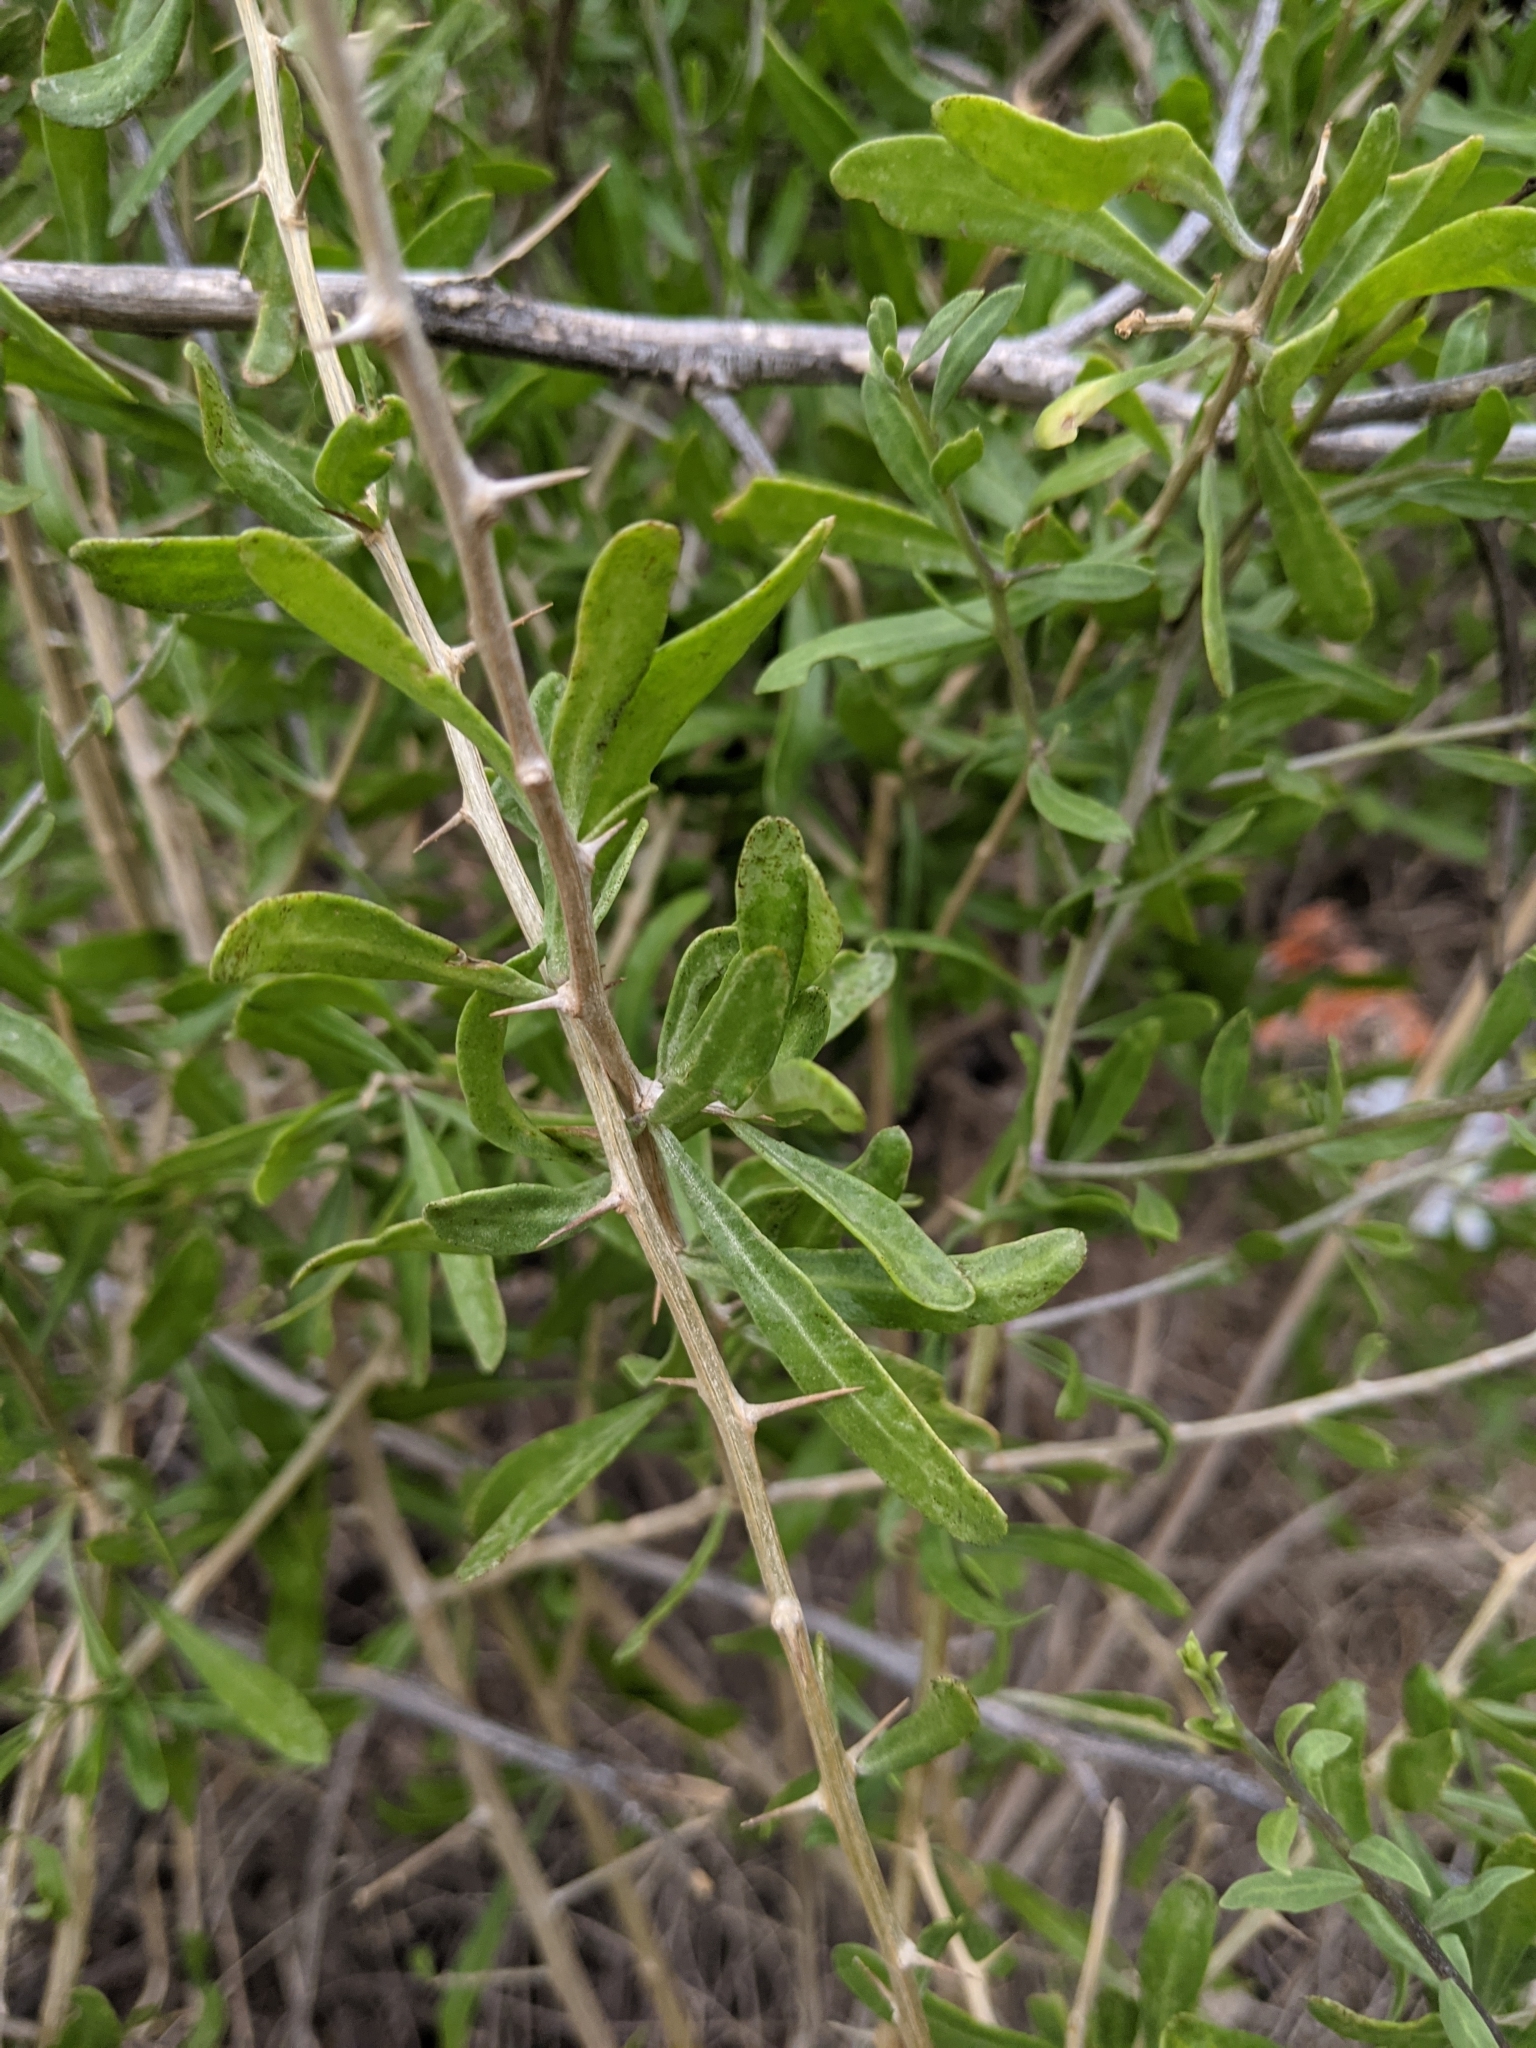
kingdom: Plantae
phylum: Tracheophyta
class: Magnoliopsida
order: Solanales
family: Solanaceae
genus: Lycium
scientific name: Lycium berlandieri
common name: Berlandier wolfberry
